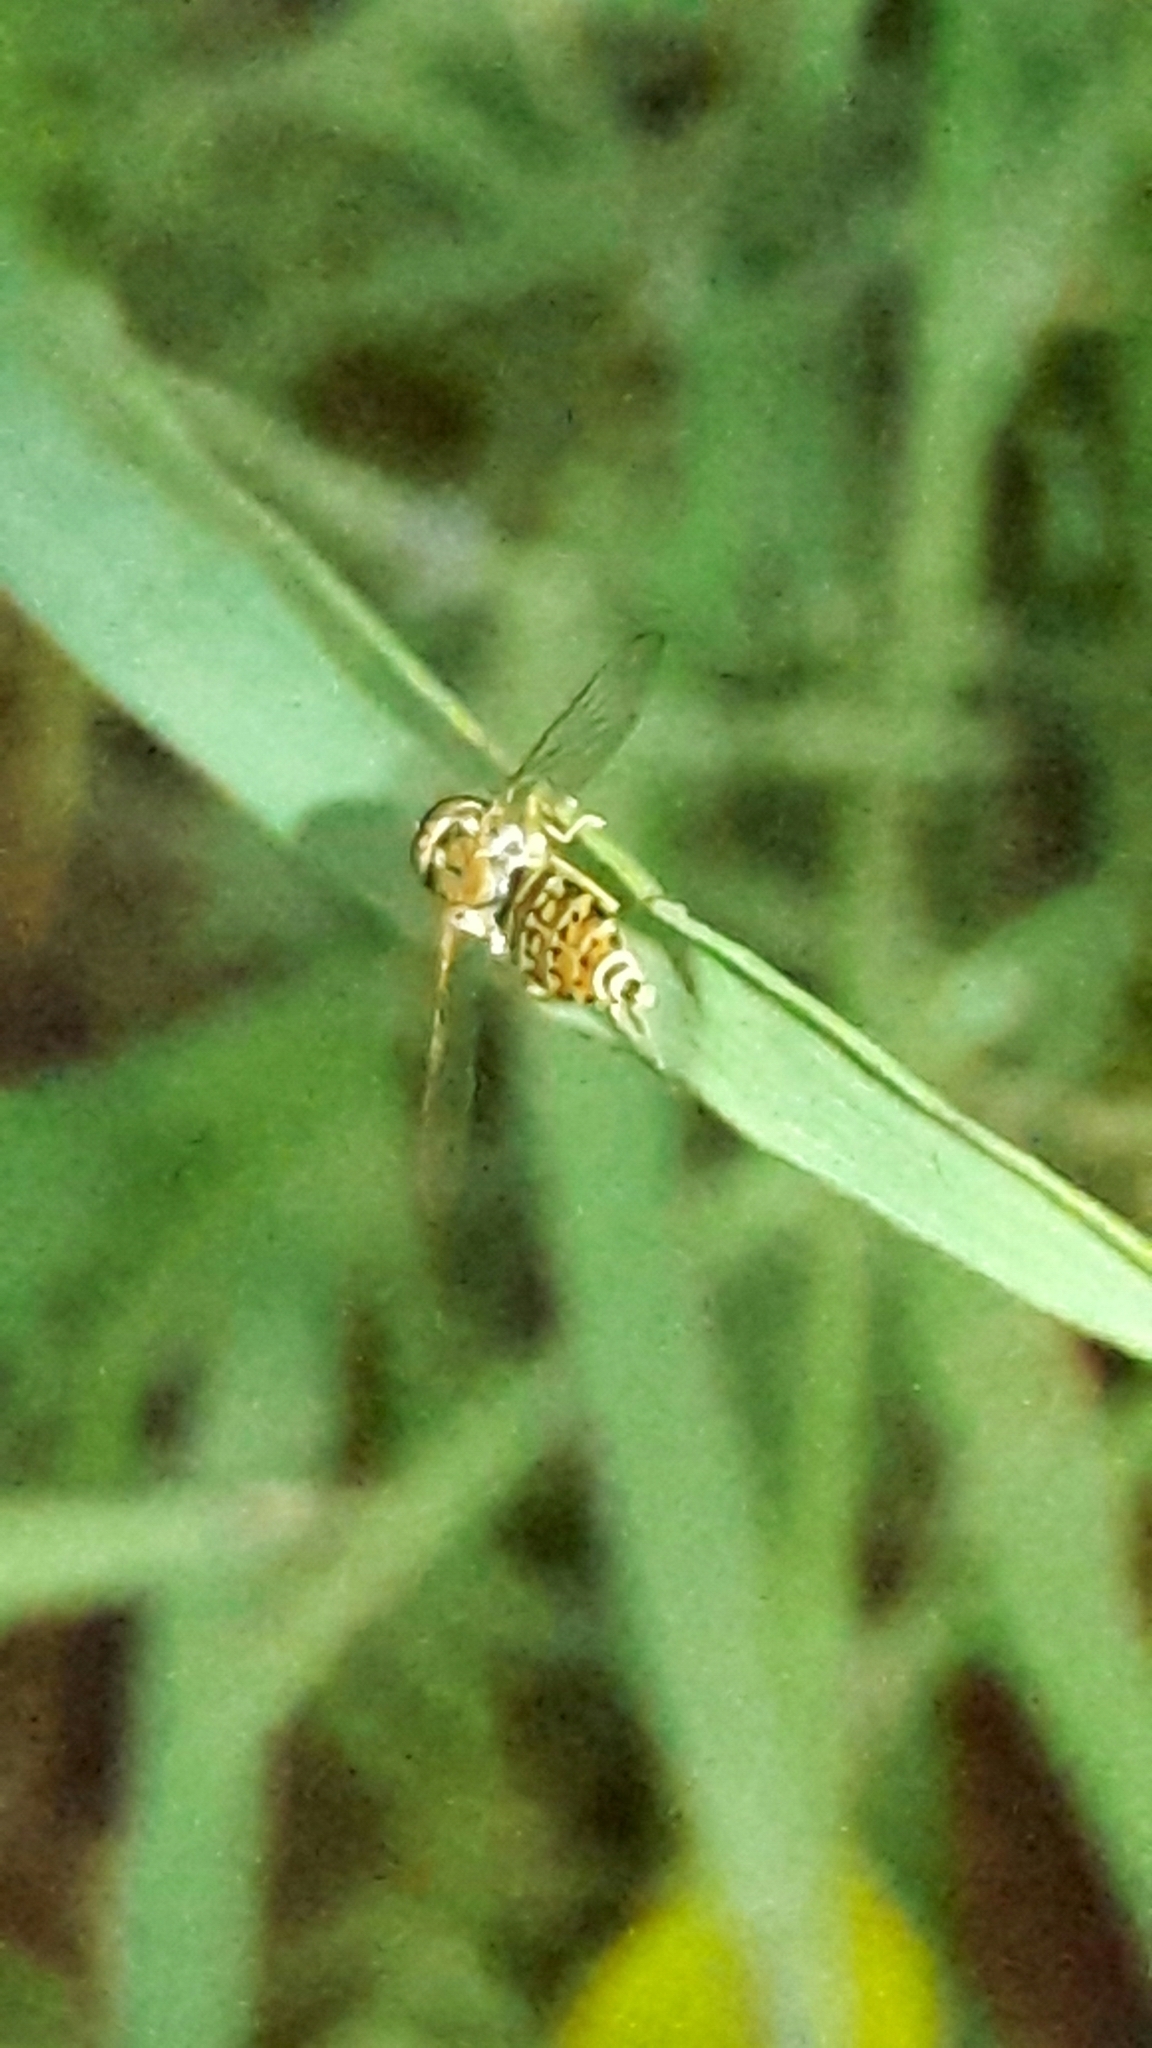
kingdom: Animalia
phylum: Arthropoda
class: Insecta
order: Diptera
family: Syrphidae
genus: Toxomerus
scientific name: Toxomerus
